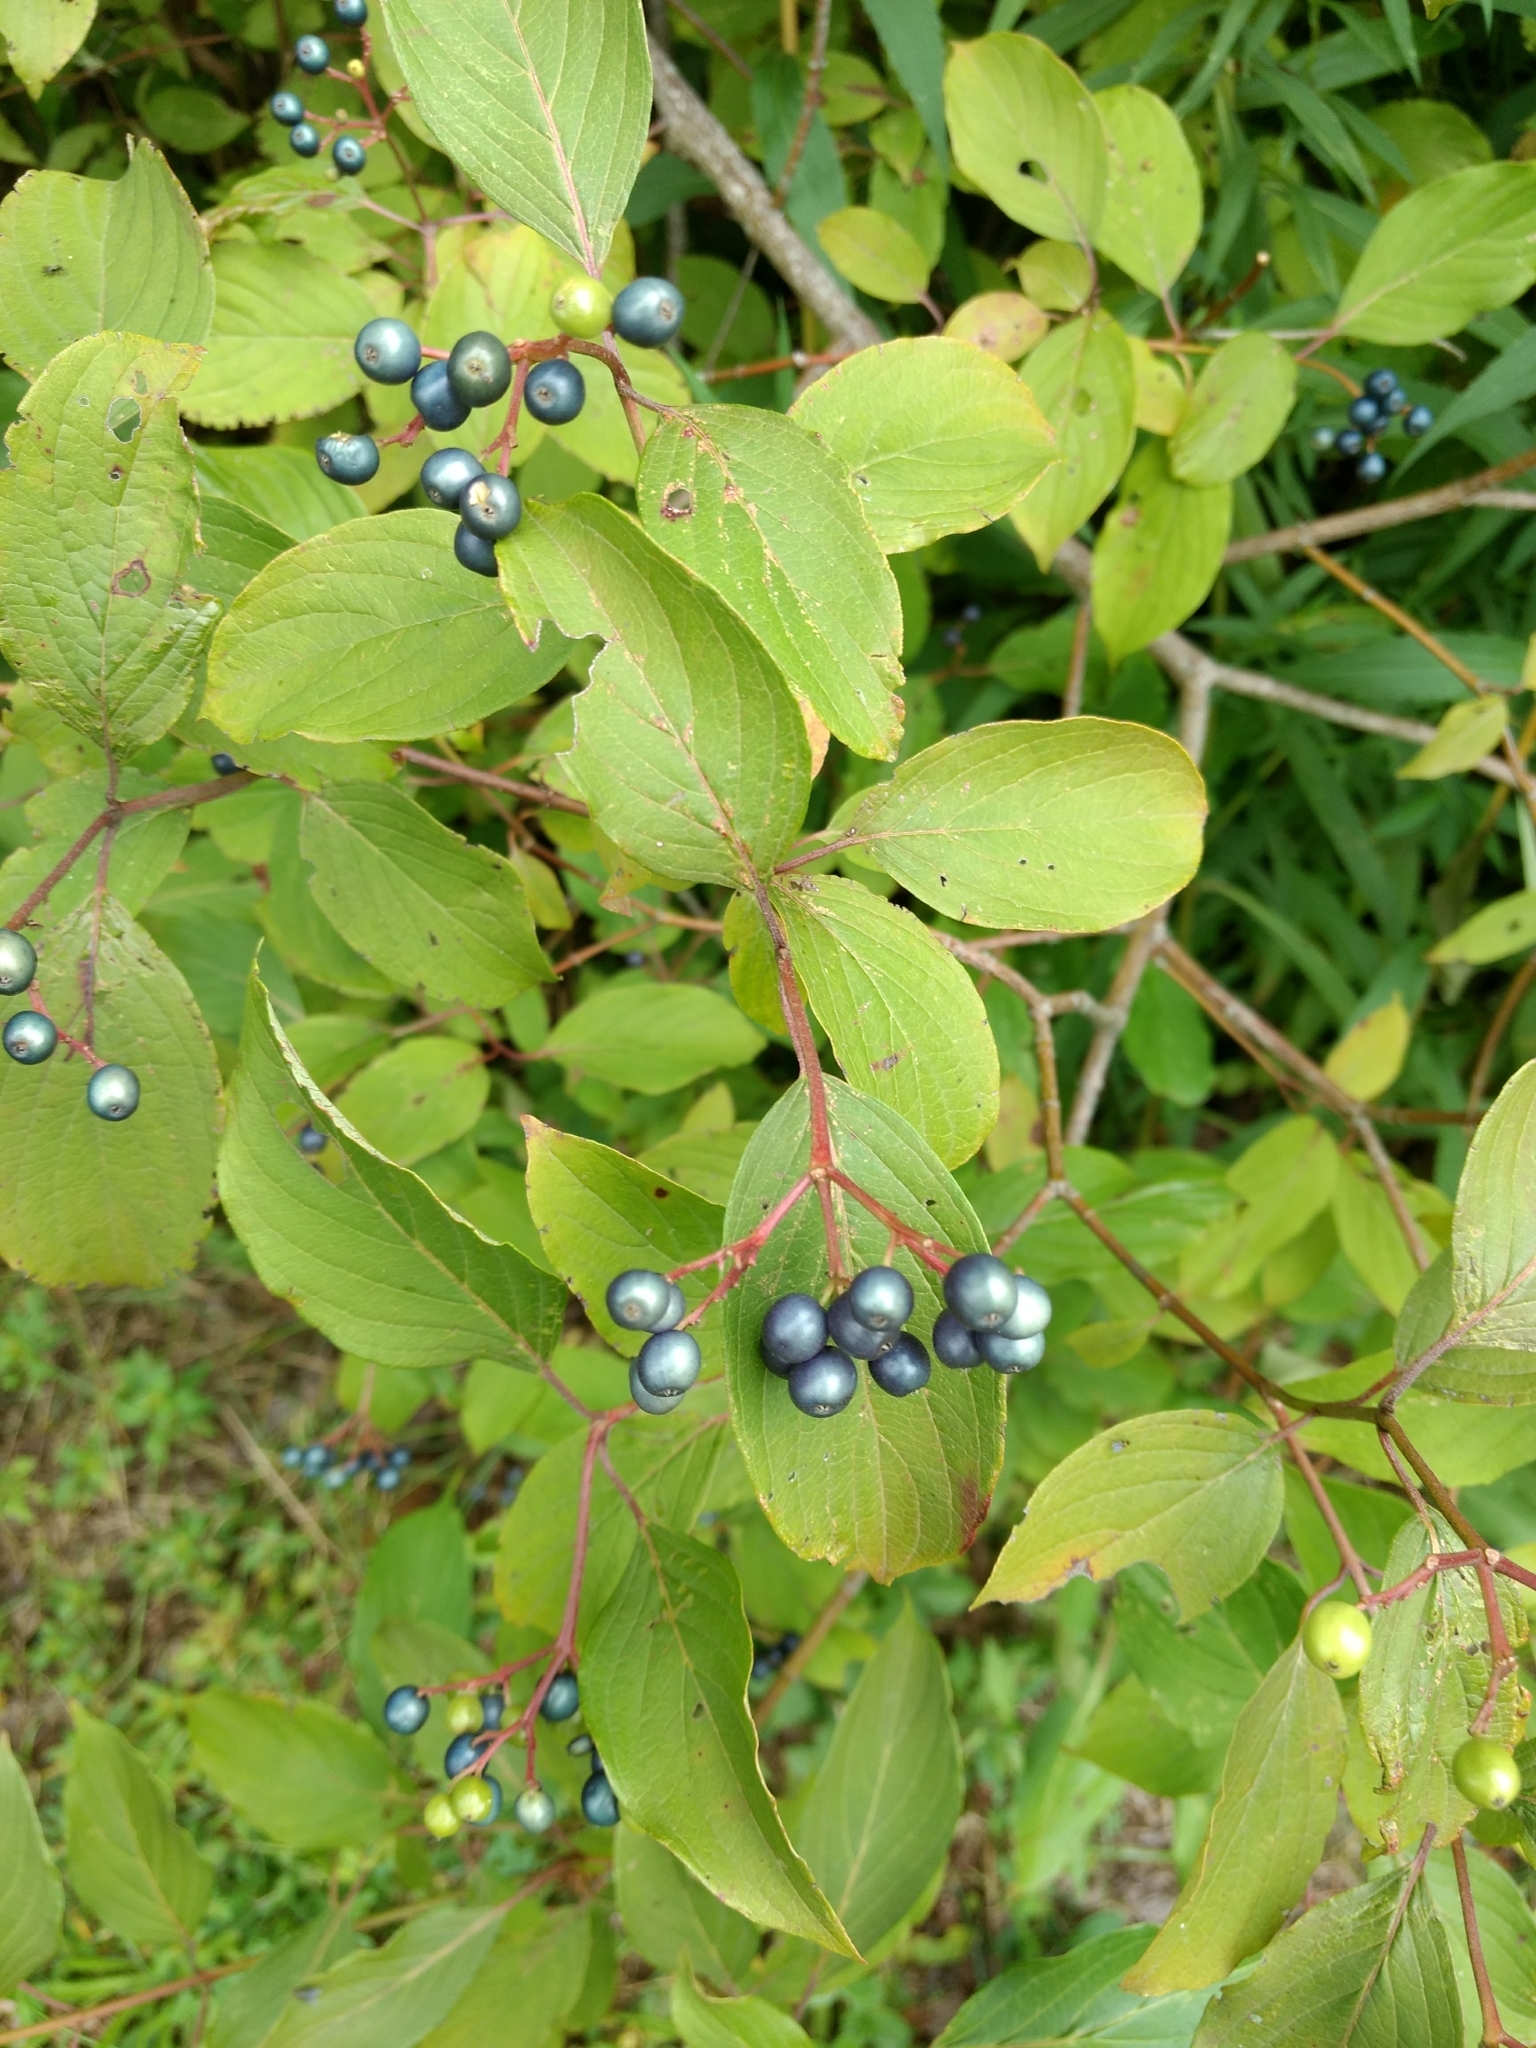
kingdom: Plantae
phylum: Tracheophyta
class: Magnoliopsida
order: Cornales
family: Cornaceae
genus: Cornus
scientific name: Cornus amomum
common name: Silky dogwood
